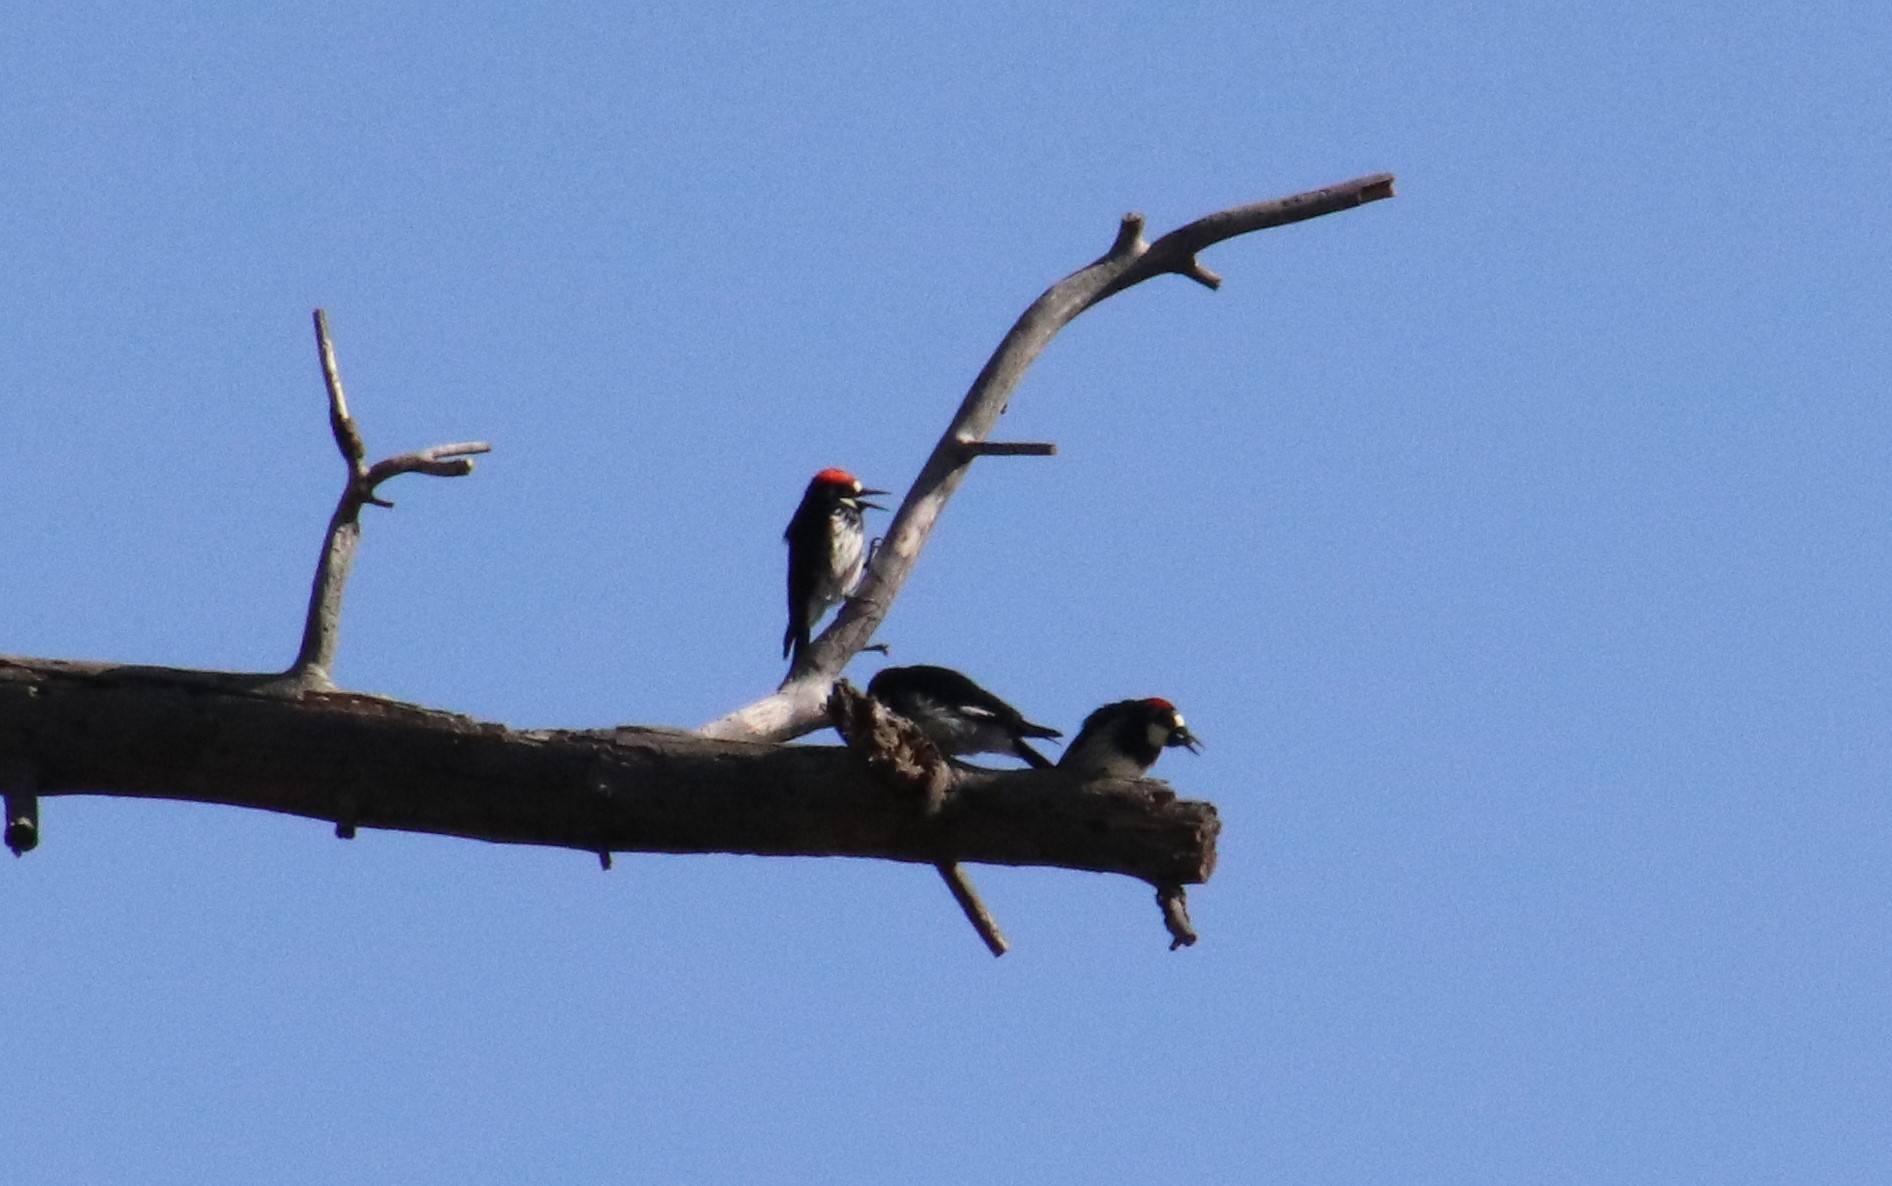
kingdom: Animalia
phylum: Chordata
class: Aves
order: Piciformes
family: Picidae
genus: Melanerpes
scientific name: Melanerpes formicivorus
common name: Acorn woodpecker
